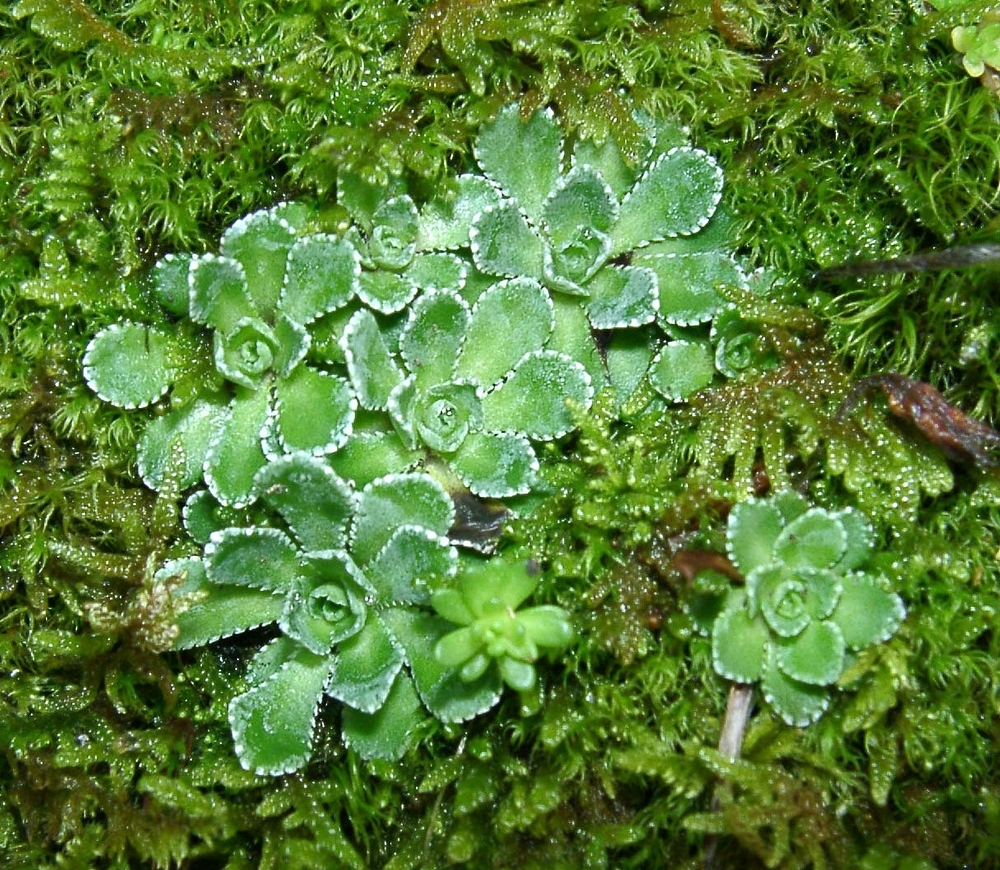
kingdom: Plantae
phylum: Tracheophyta
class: Magnoliopsida
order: Saxifragales
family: Saxifragaceae
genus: Saxifraga
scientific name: Saxifraga paniculata
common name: Livelong saxifrage
